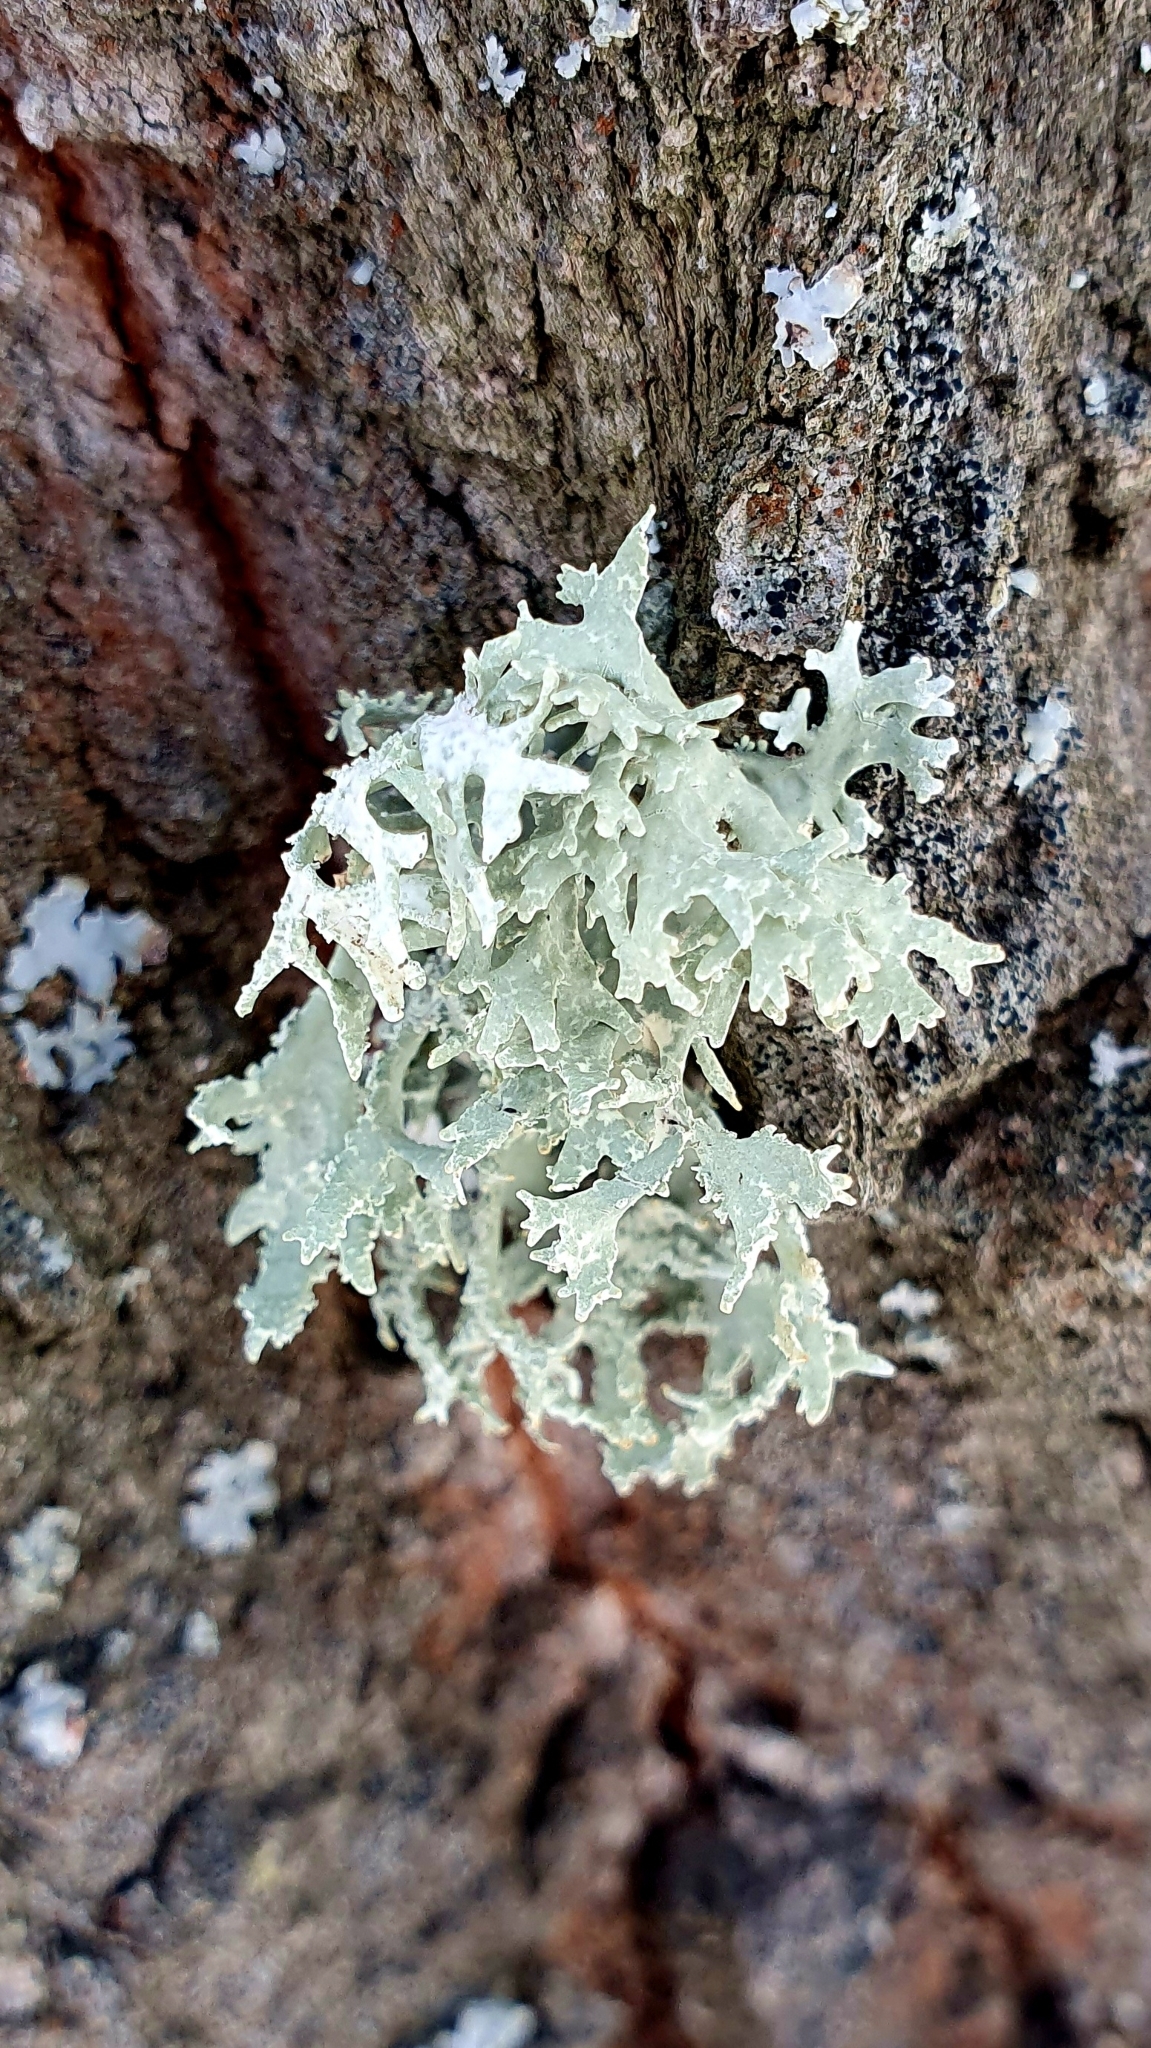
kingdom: Fungi
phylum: Ascomycota
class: Lecanoromycetes
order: Lecanorales
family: Parmeliaceae
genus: Evernia
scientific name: Evernia prunastri
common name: Oak moss
